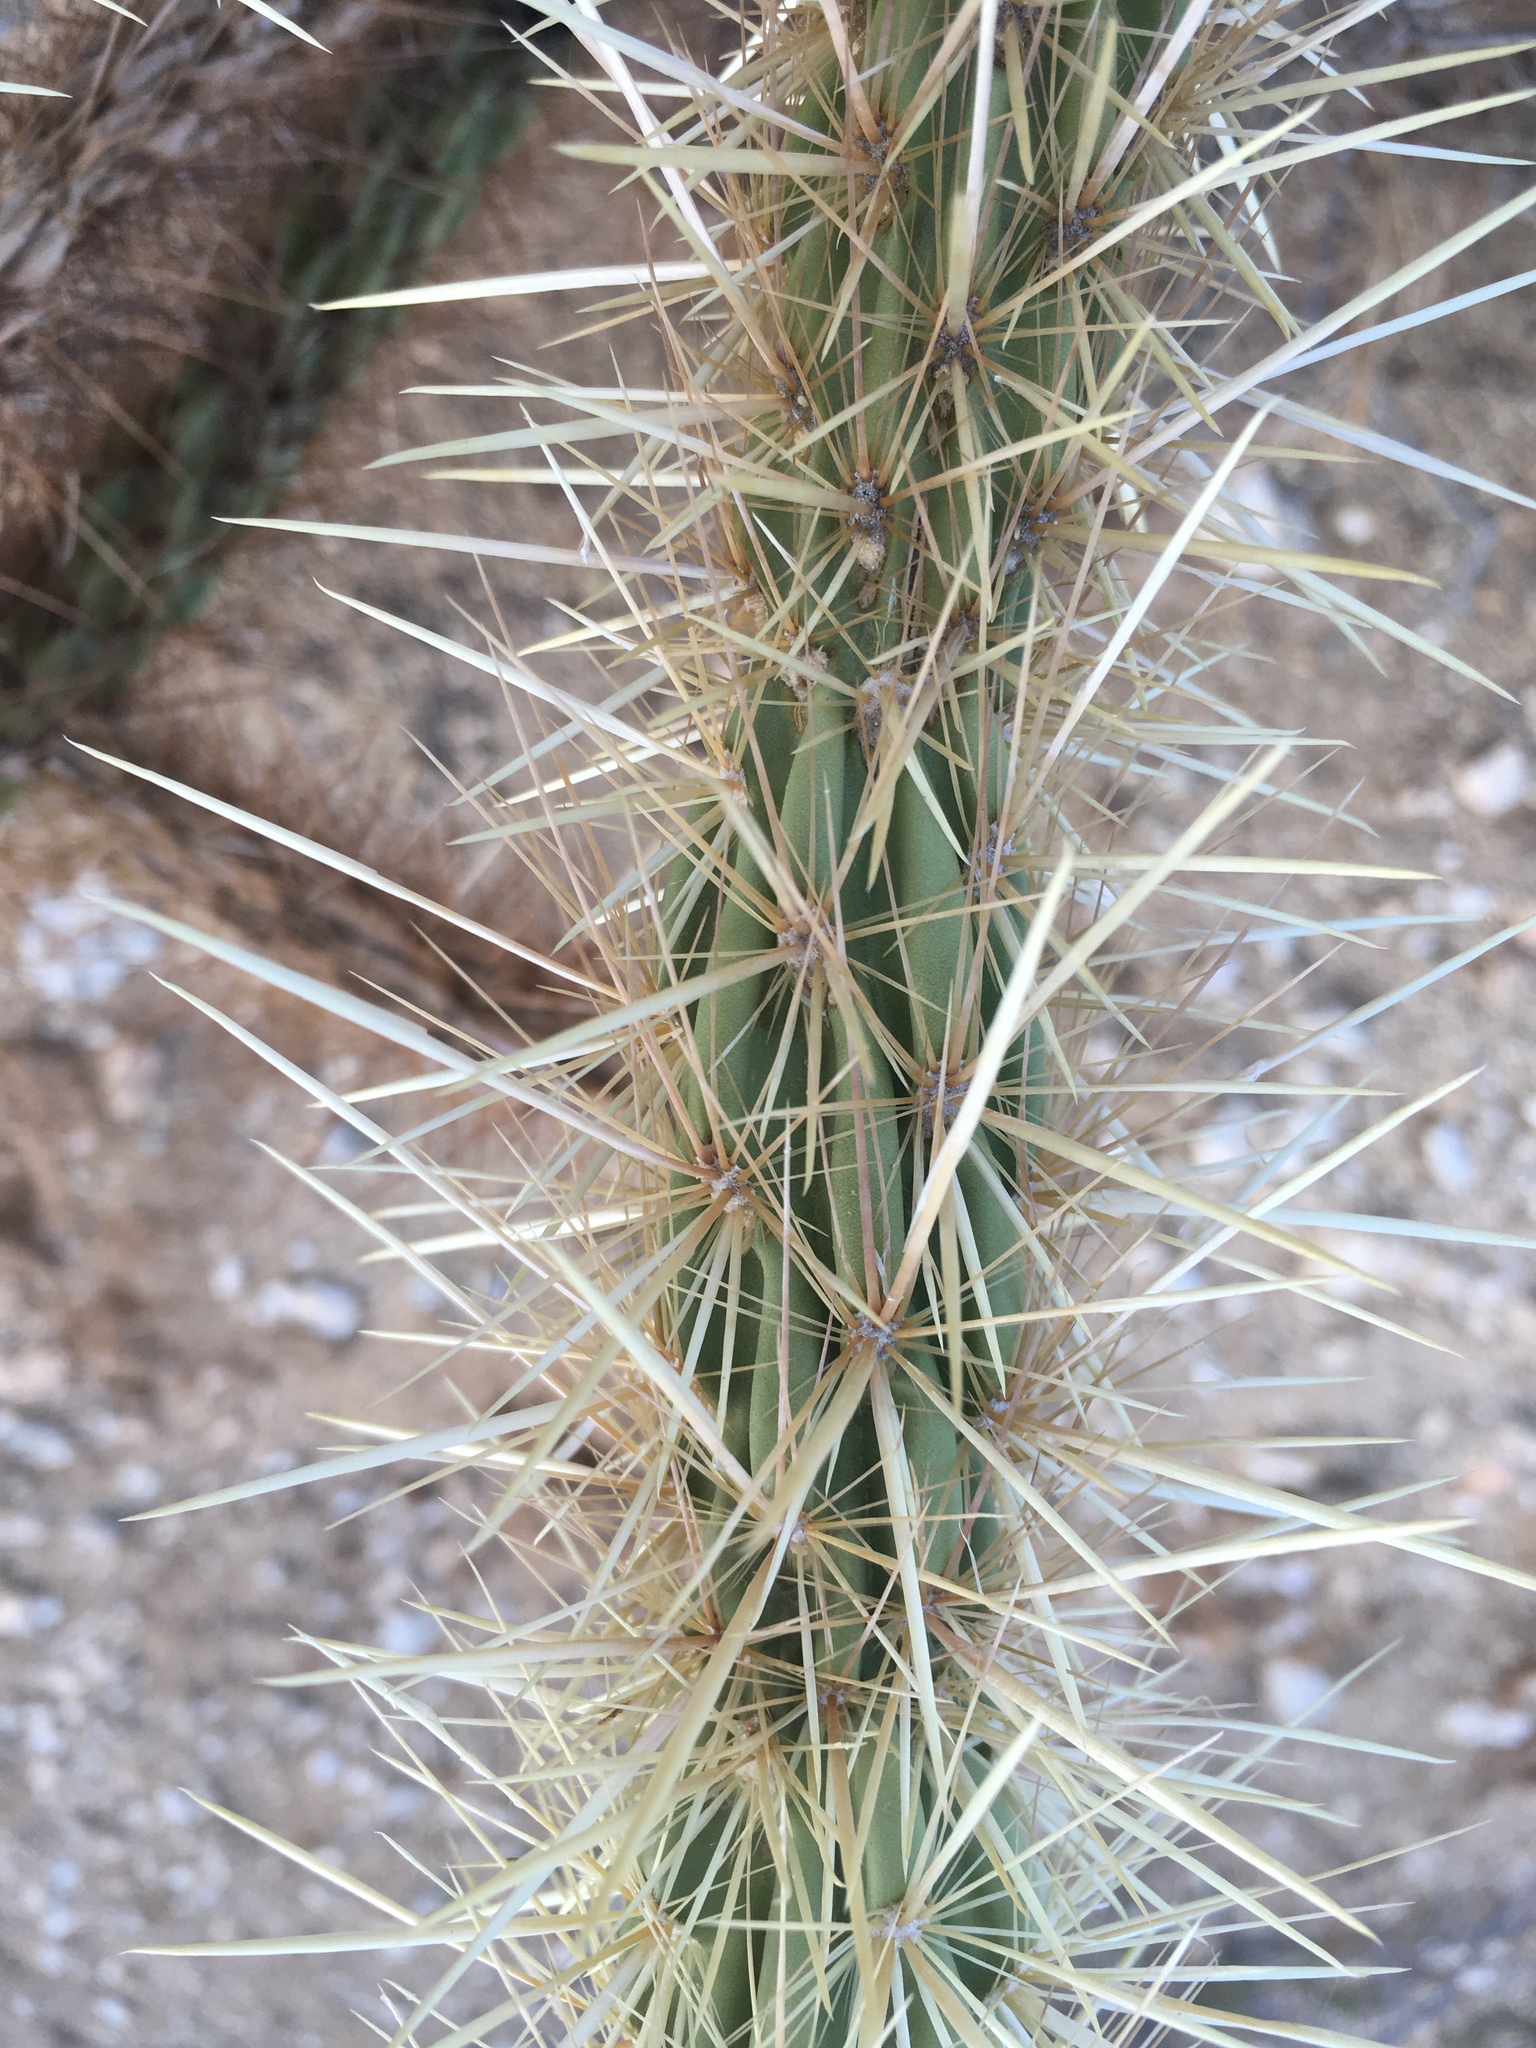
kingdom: Plantae
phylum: Tracheophyta
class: Magnoliopsida
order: Caryophyllales
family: Cactaceae
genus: Cylindropuntia
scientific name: Cylindropuntia ganderi
